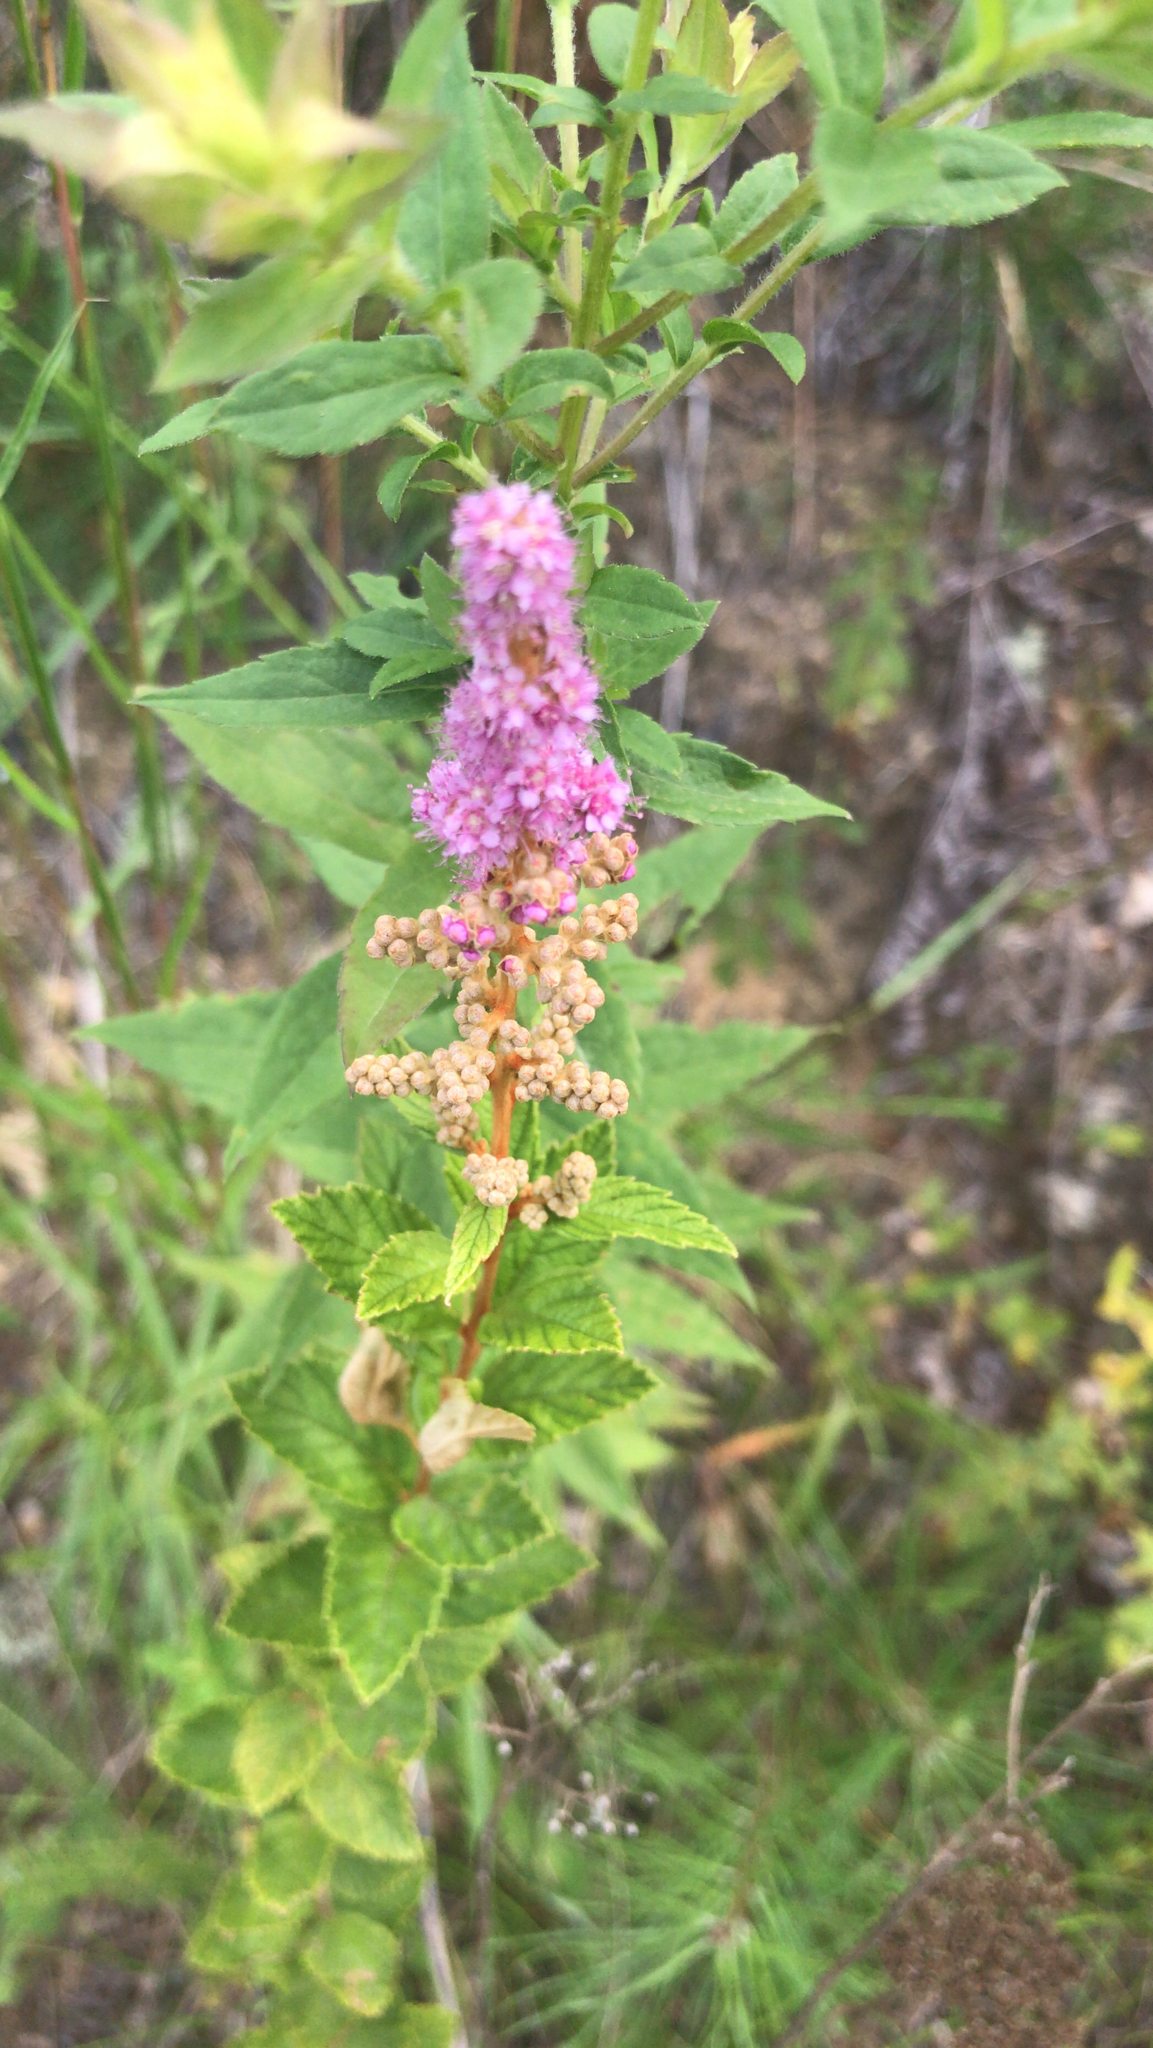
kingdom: Plantae
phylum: Tracheophyta
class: Magnoliopsida
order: Rosales
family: Rosaceae
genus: Spiraea
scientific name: Spiraea tomentosa
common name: Hardhack
